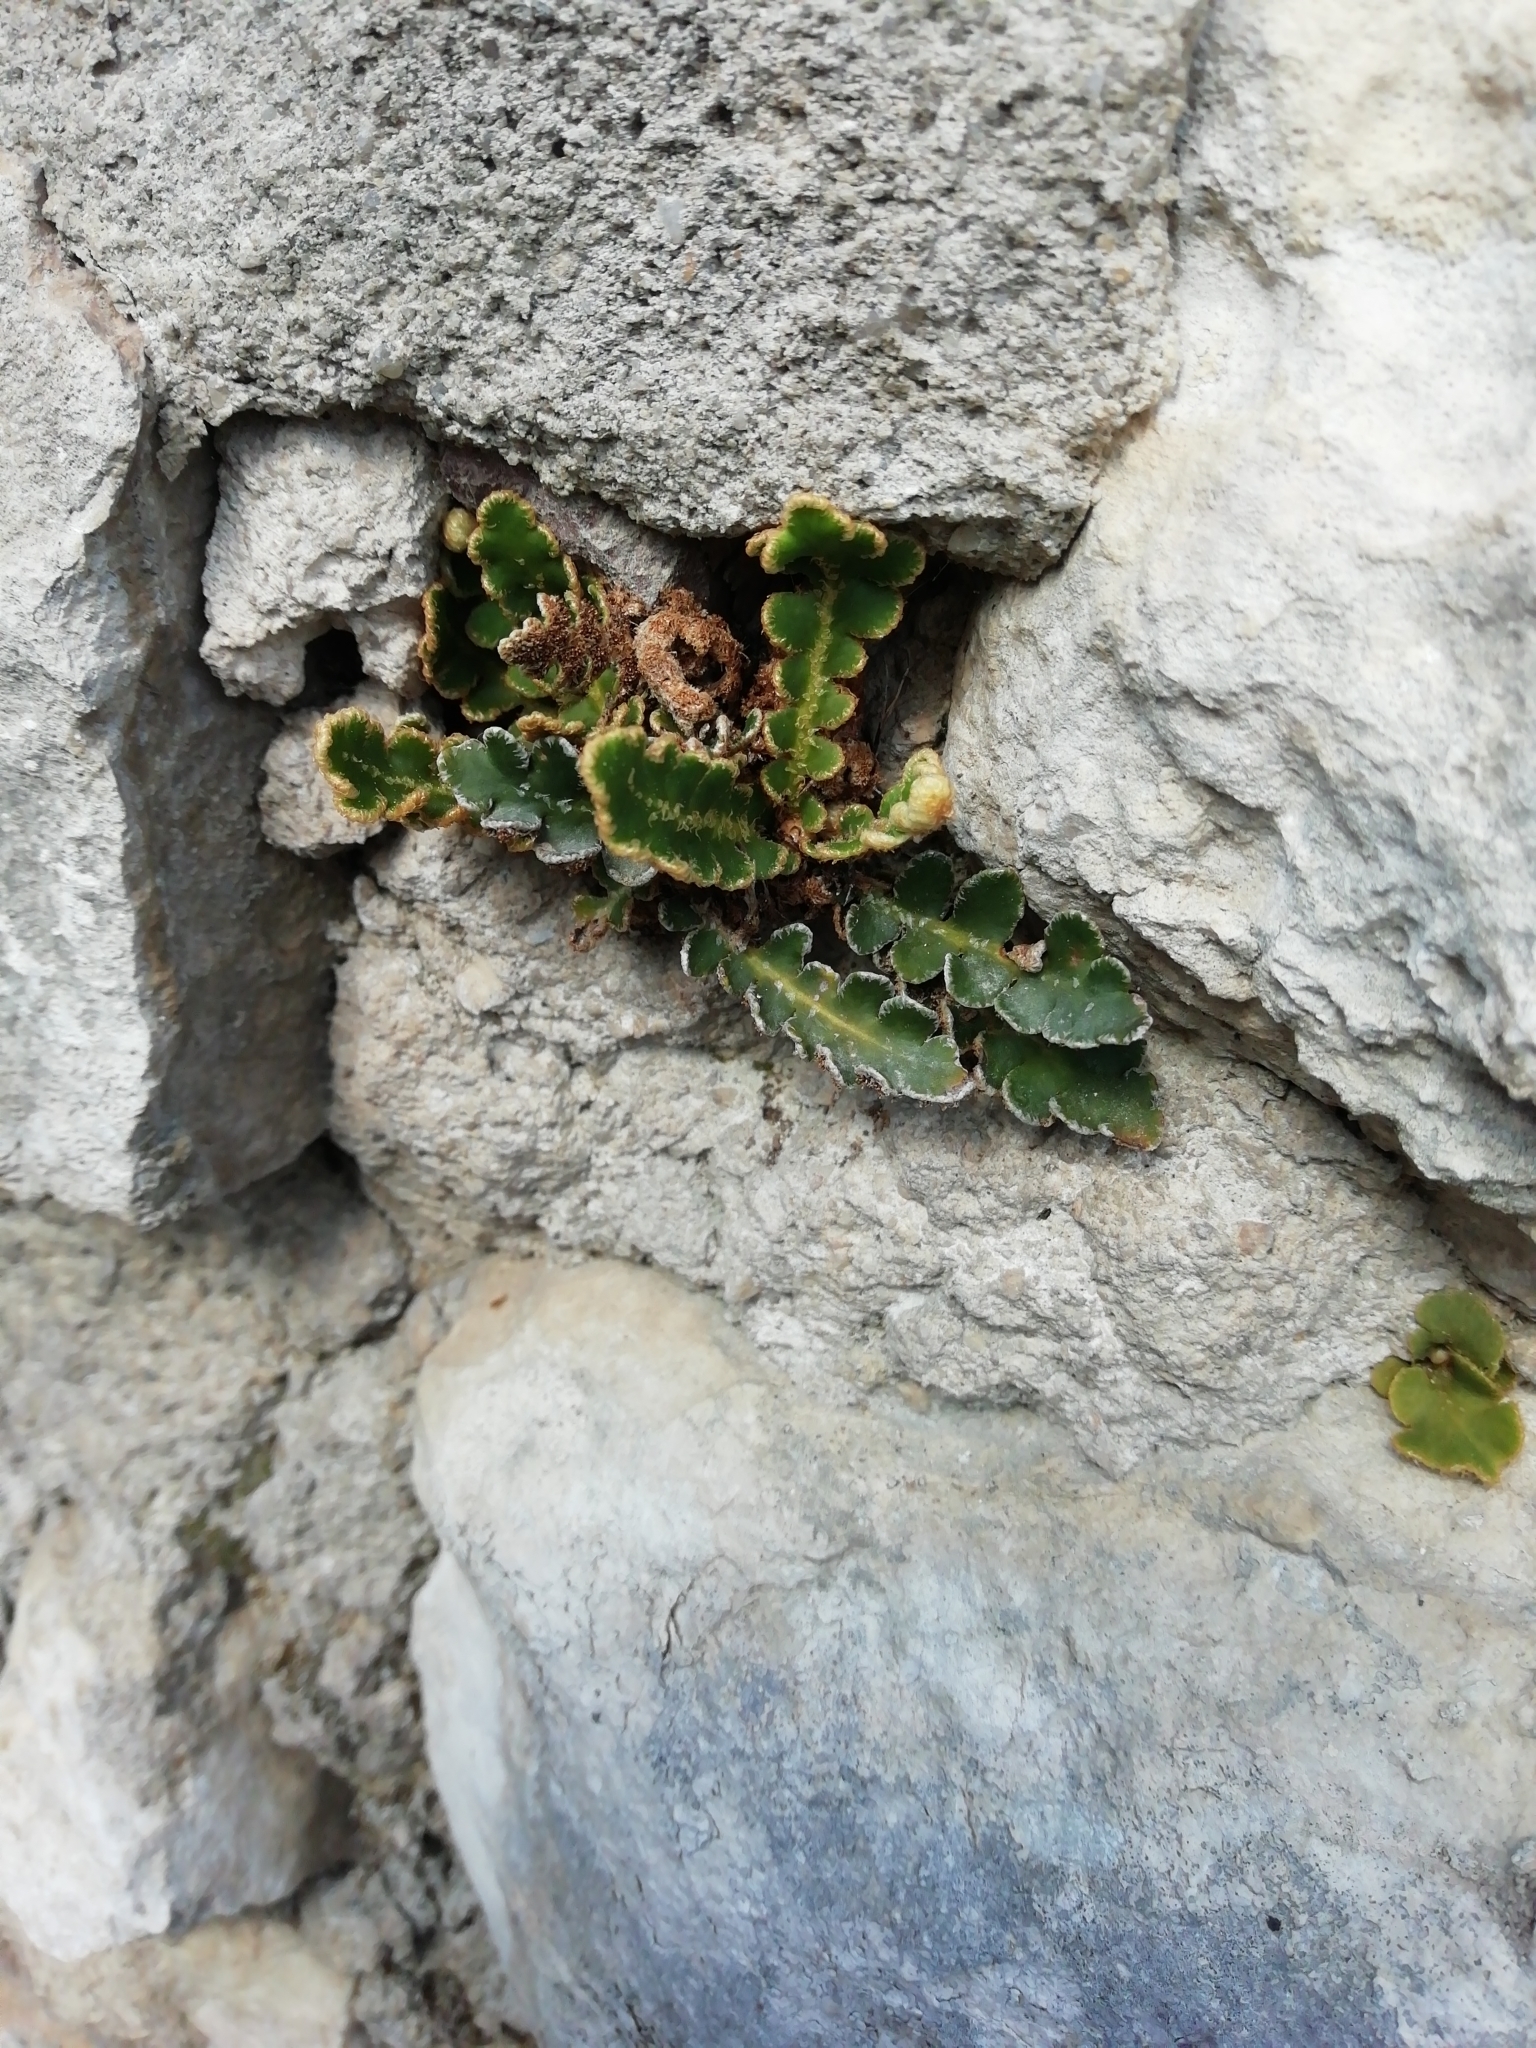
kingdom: Plantae
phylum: Tracheophyta
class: Polypodiopsida
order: Polypodiales
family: Aspleniaceae
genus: Asplenium
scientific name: Asplenium ceterach
